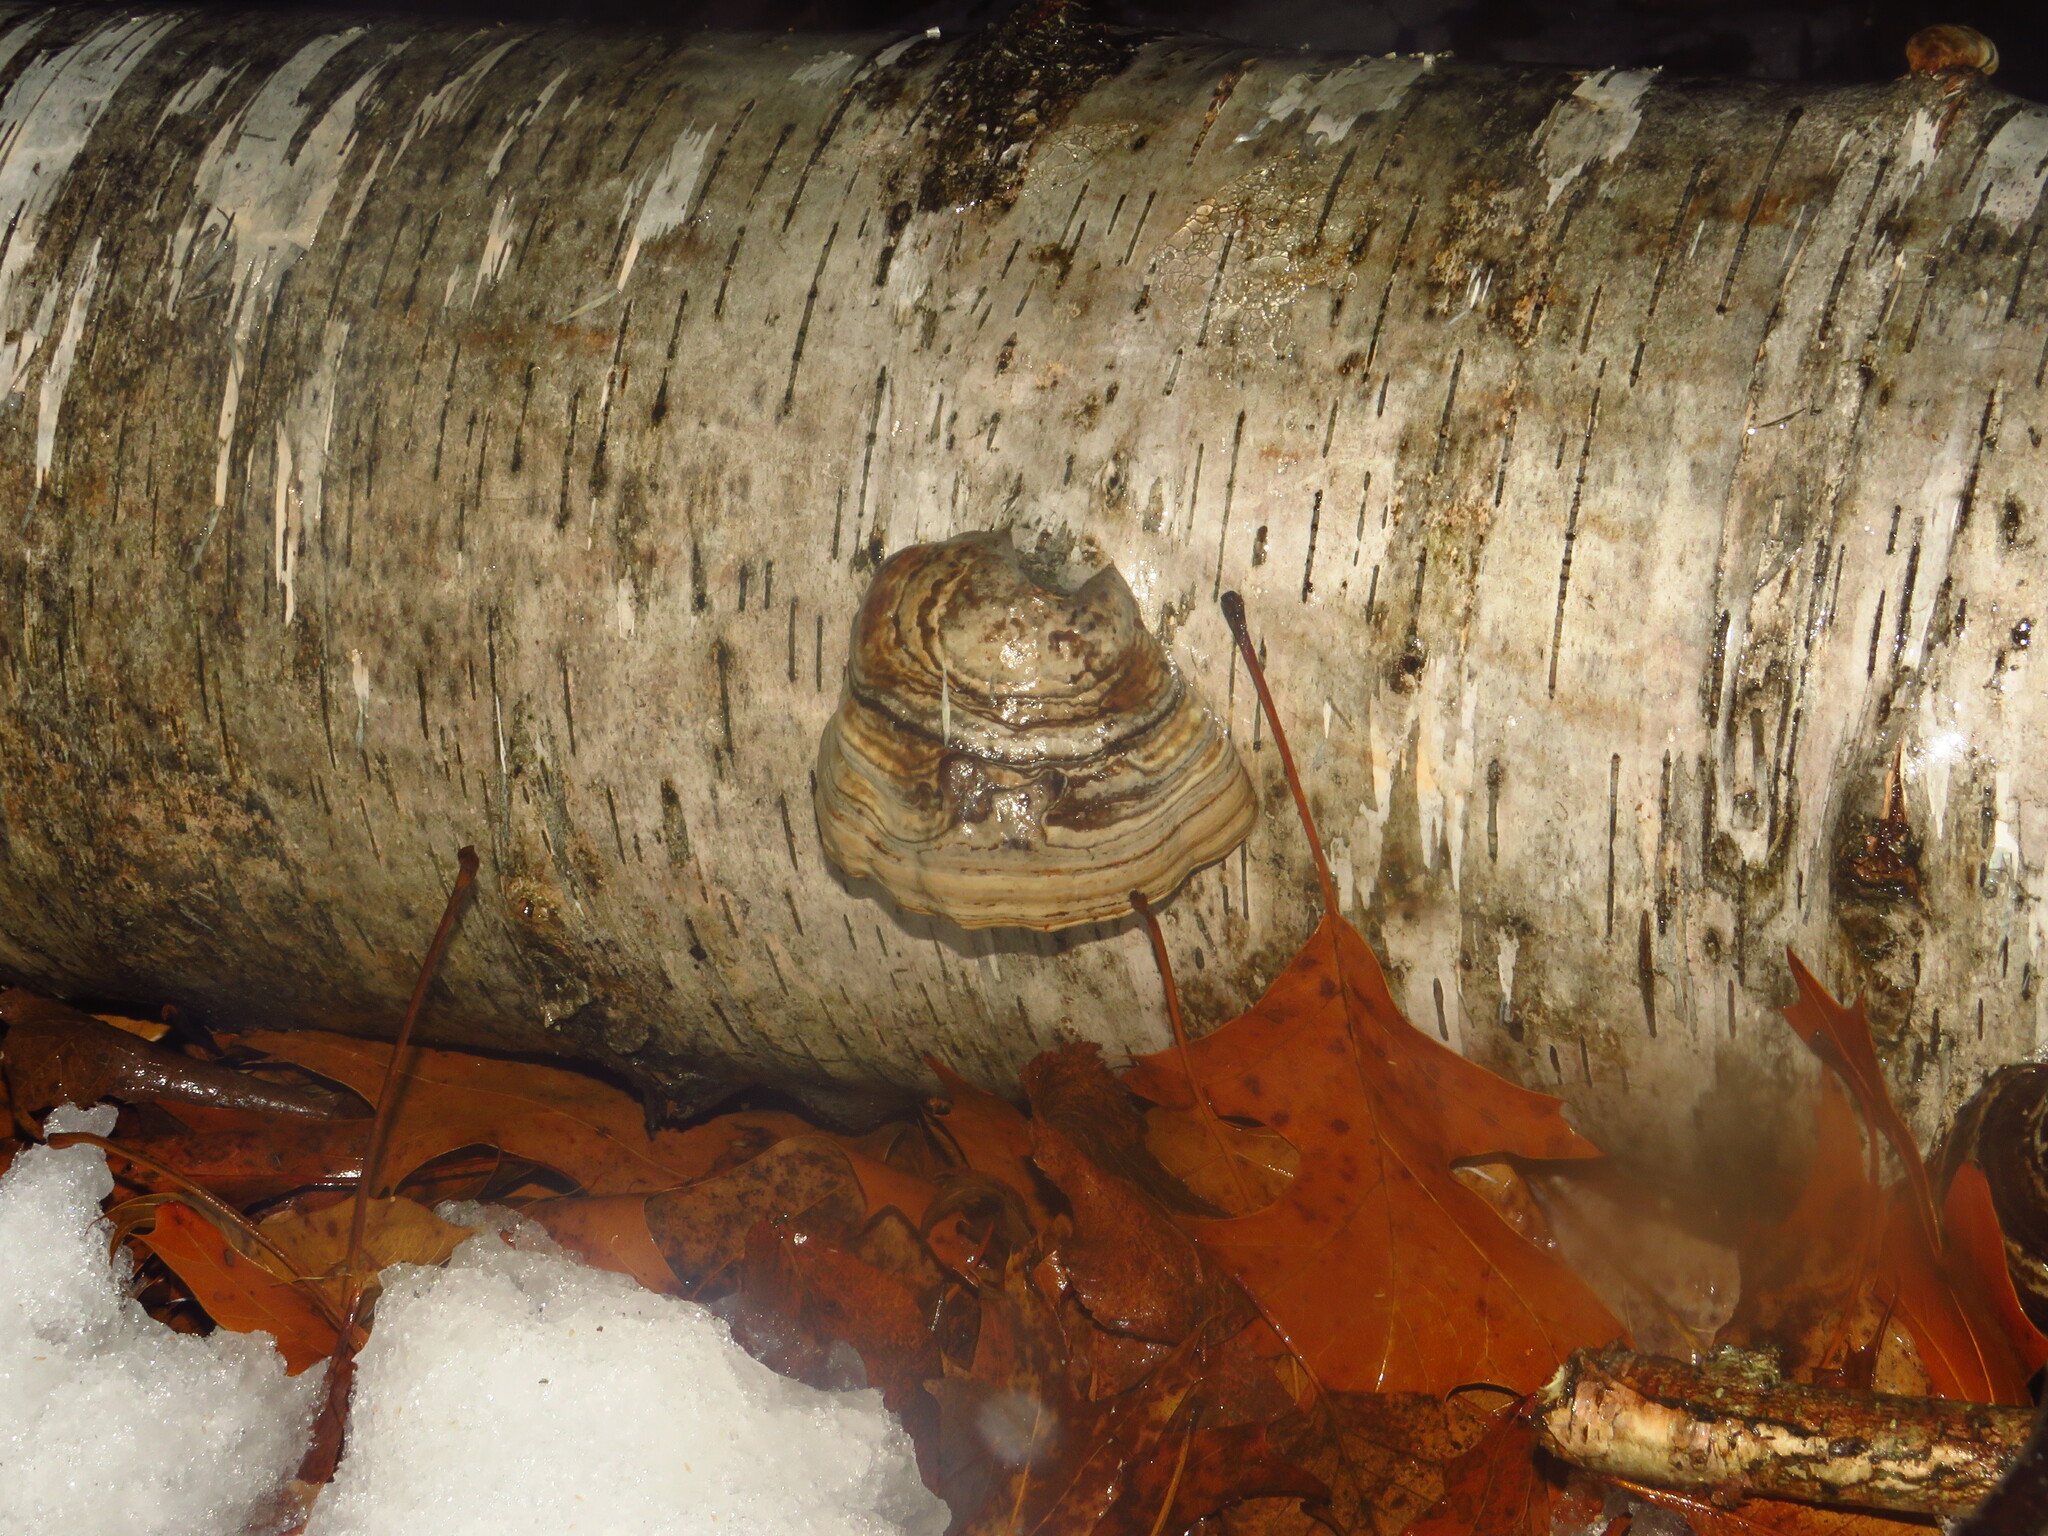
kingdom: Fungi
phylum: Basidiomycota
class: Agaricomycetes
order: Polyporales
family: Polyporaceae
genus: Fomes
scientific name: Fomes fomentarius
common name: Hoof fungus
